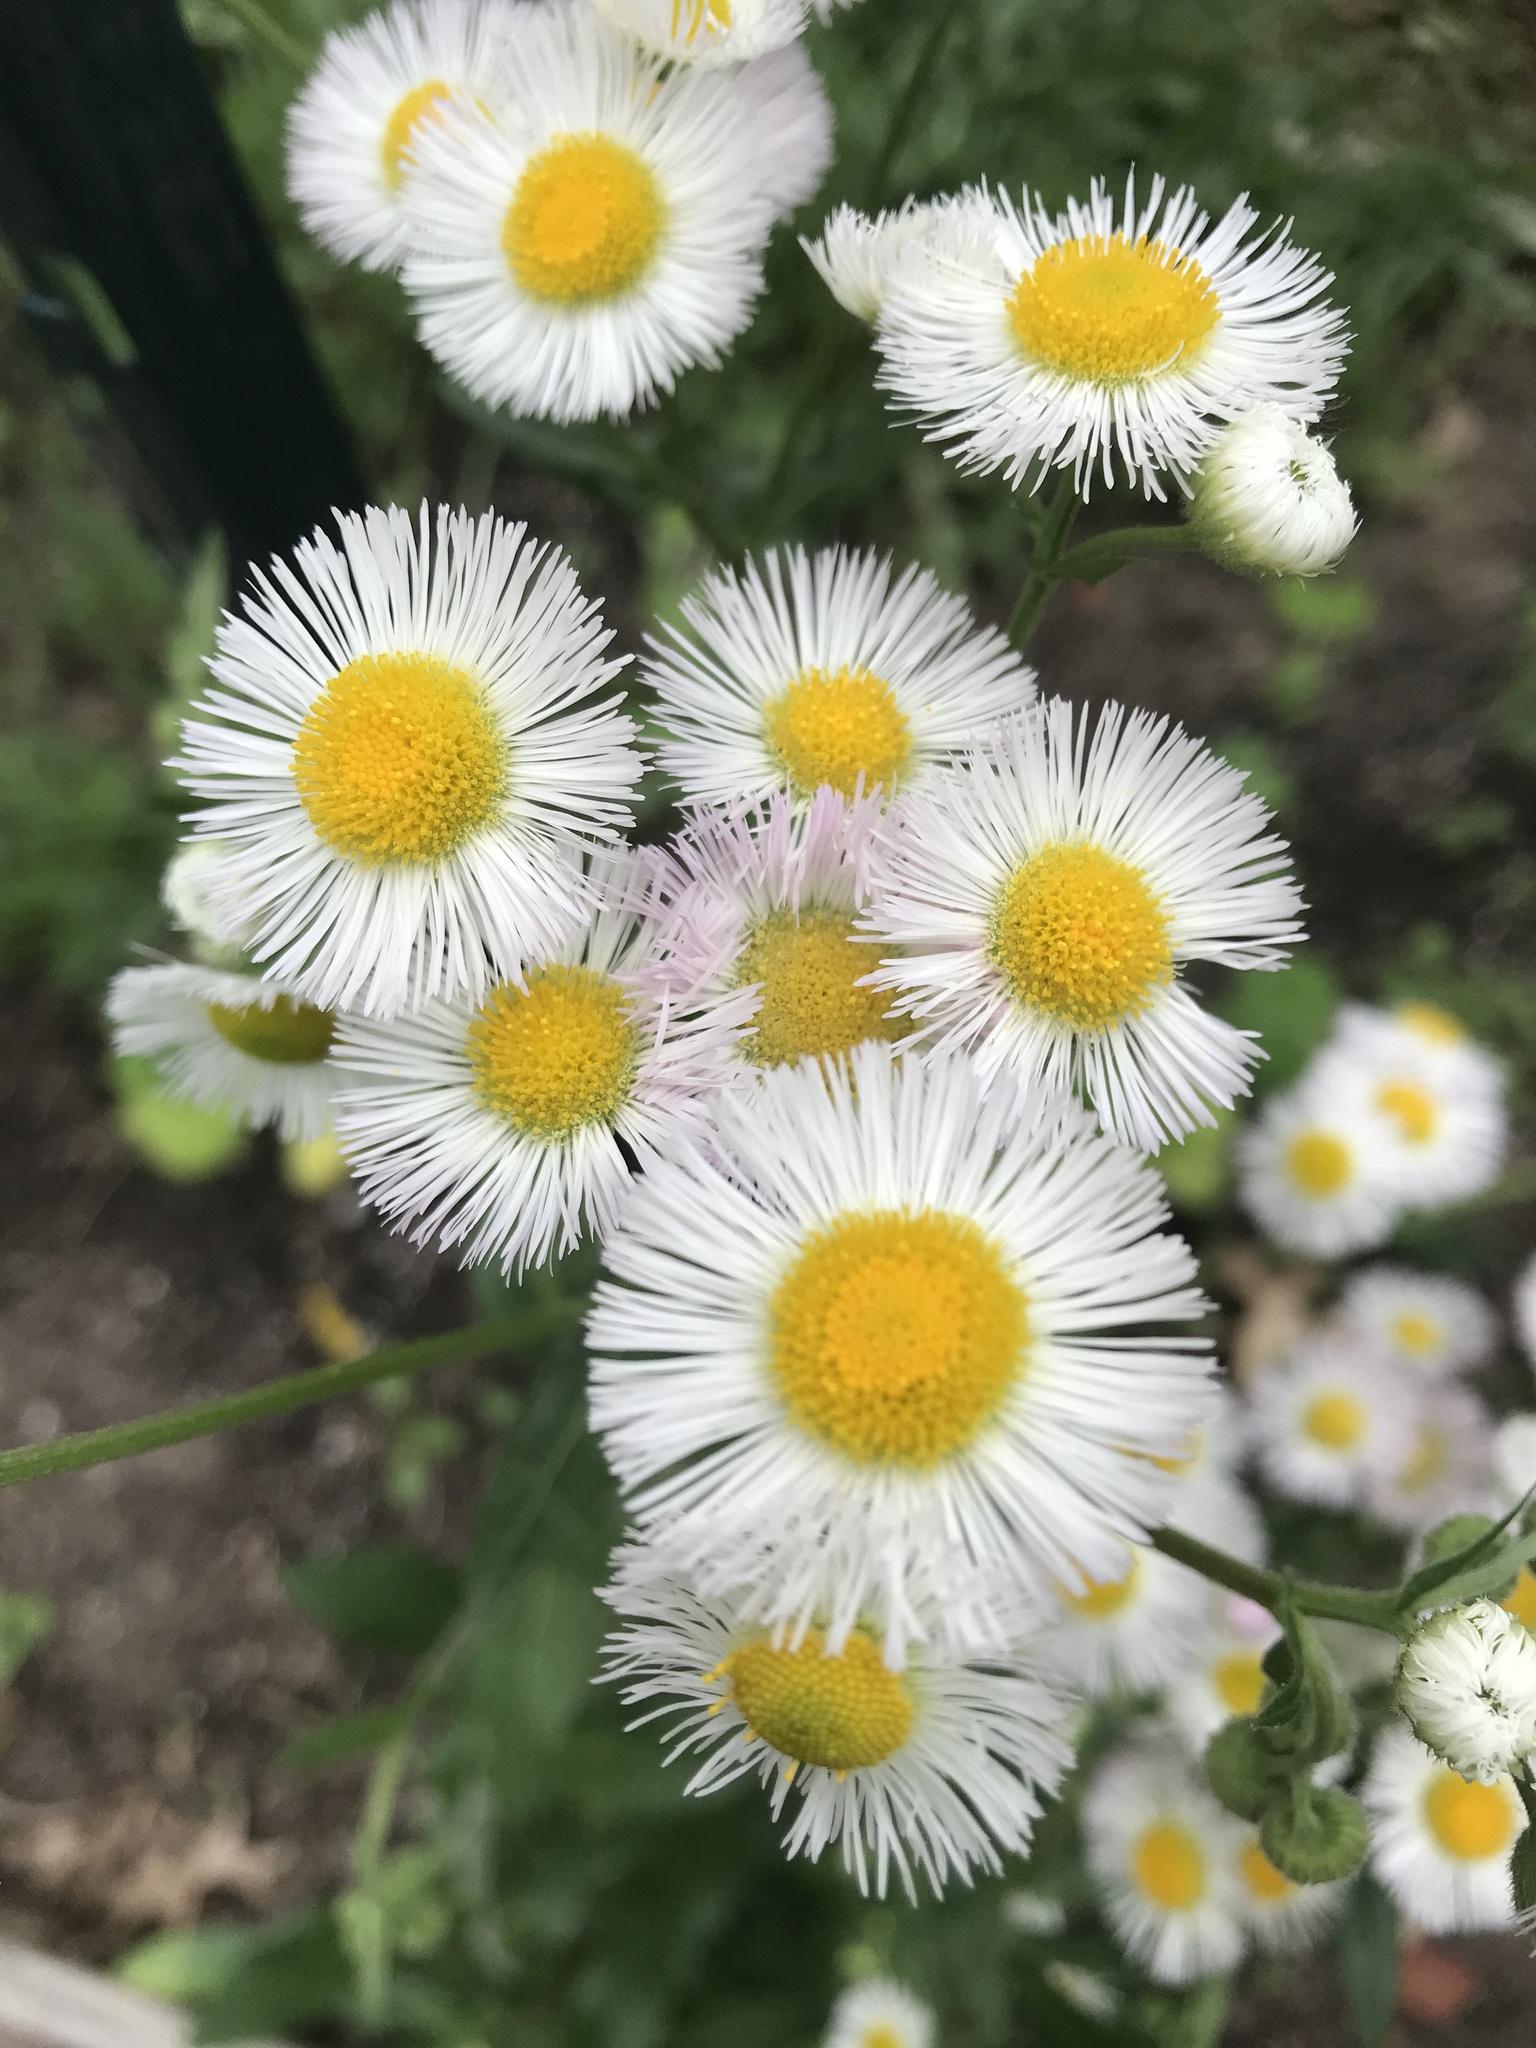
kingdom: Plantae
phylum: Tracheophyta
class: Magnoliopsida
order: Asterales
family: Asteraceae
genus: Erigeron
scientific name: Erigeron philadelphicus
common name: Robin's-plantain
